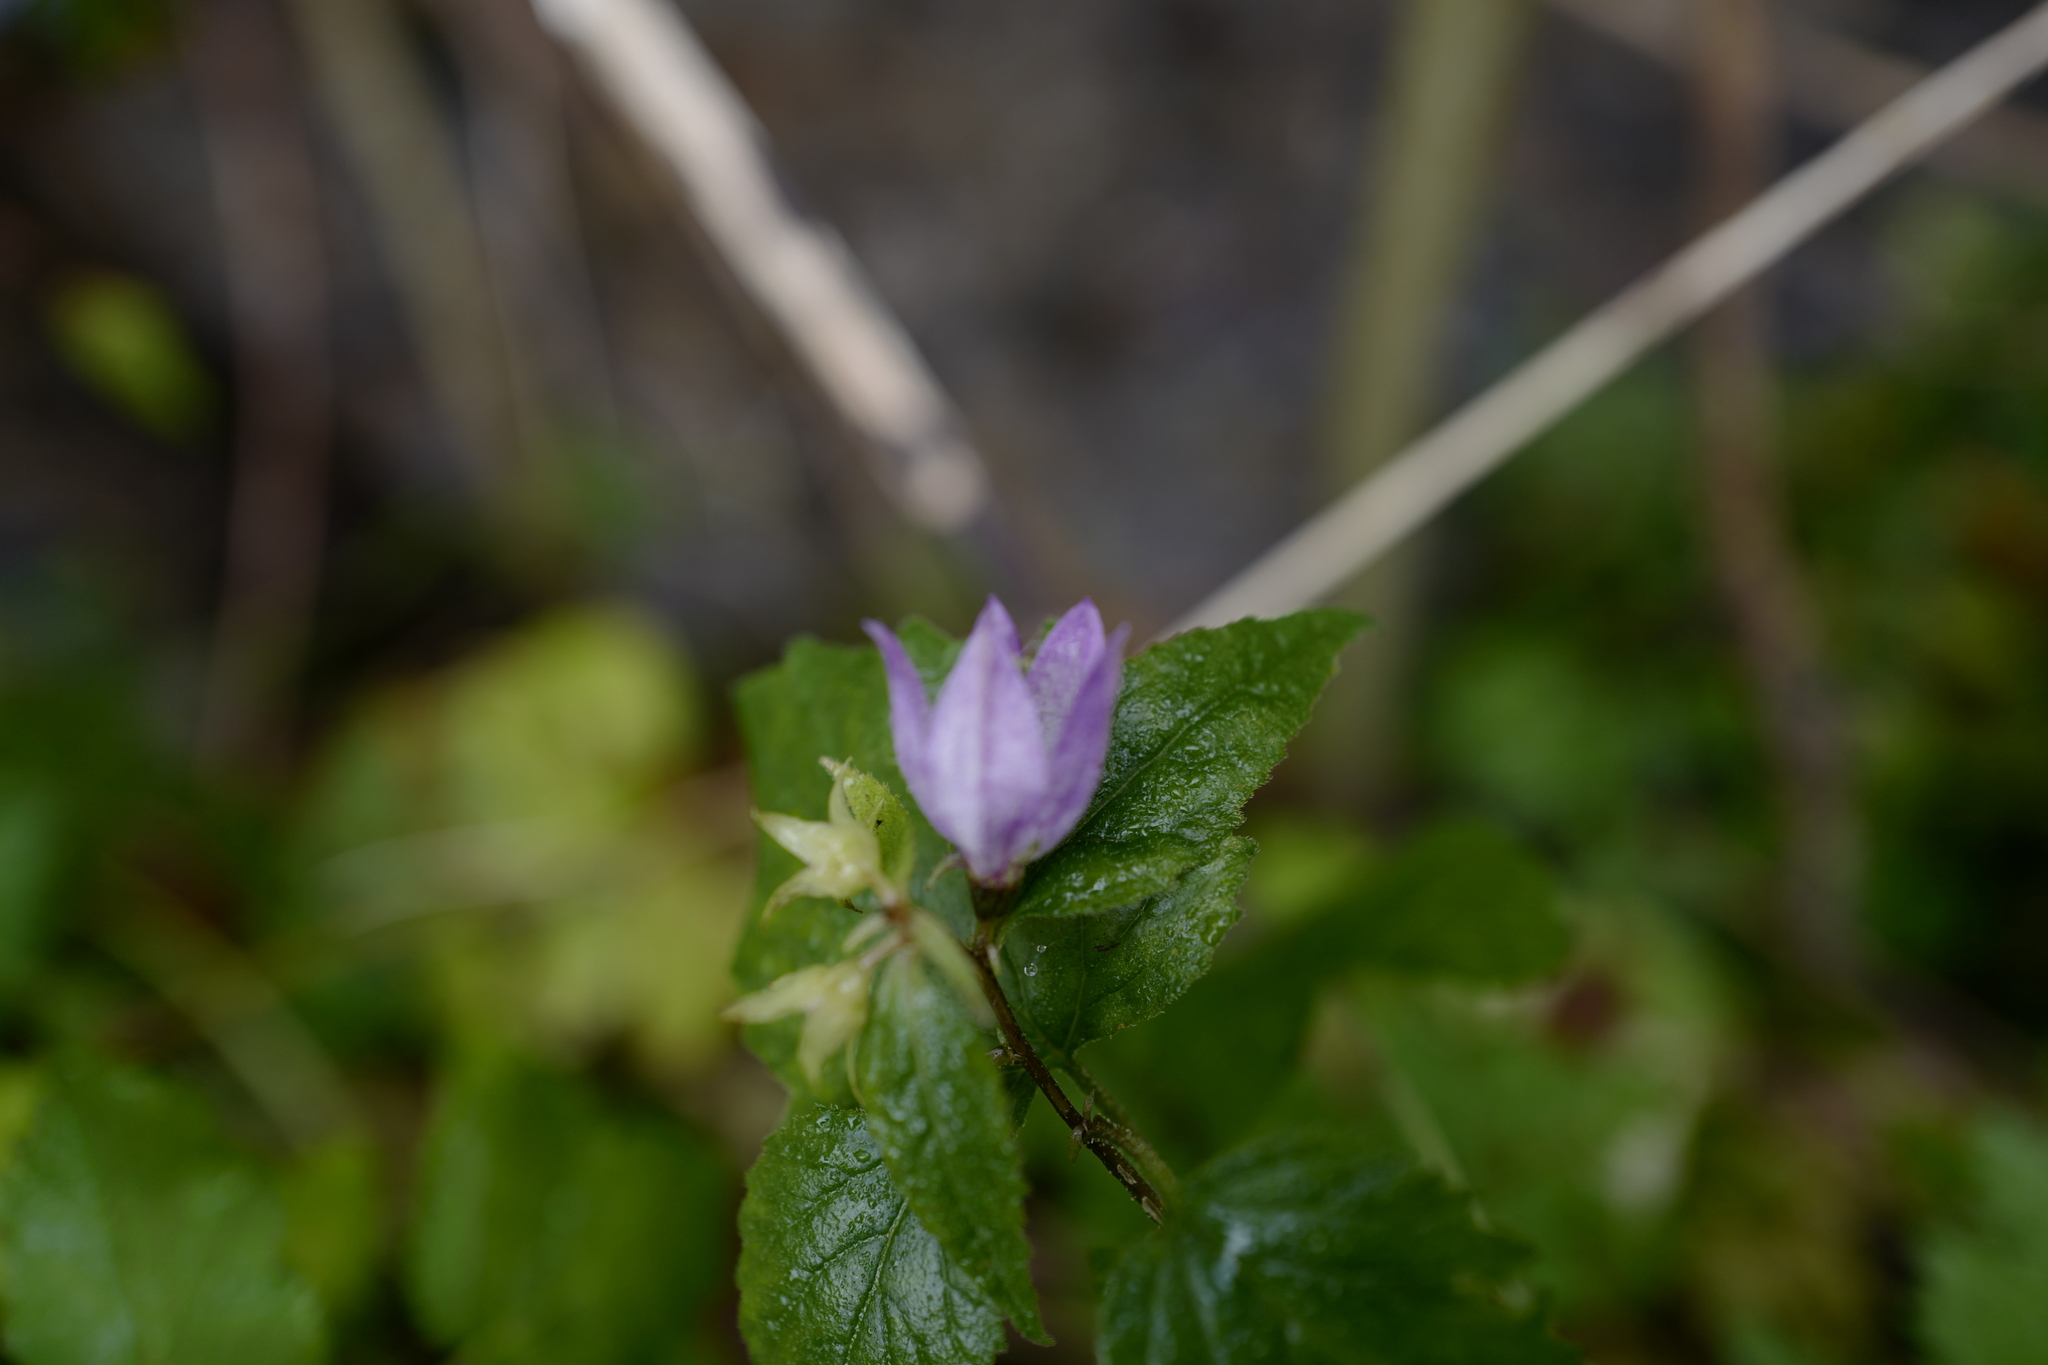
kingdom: Plantae
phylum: Tracheophyta
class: Magnoliopsida
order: Asterales
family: Campanulaceae
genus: Campanula
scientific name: Campanula trachelium
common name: Nettle-leaved bellflower
